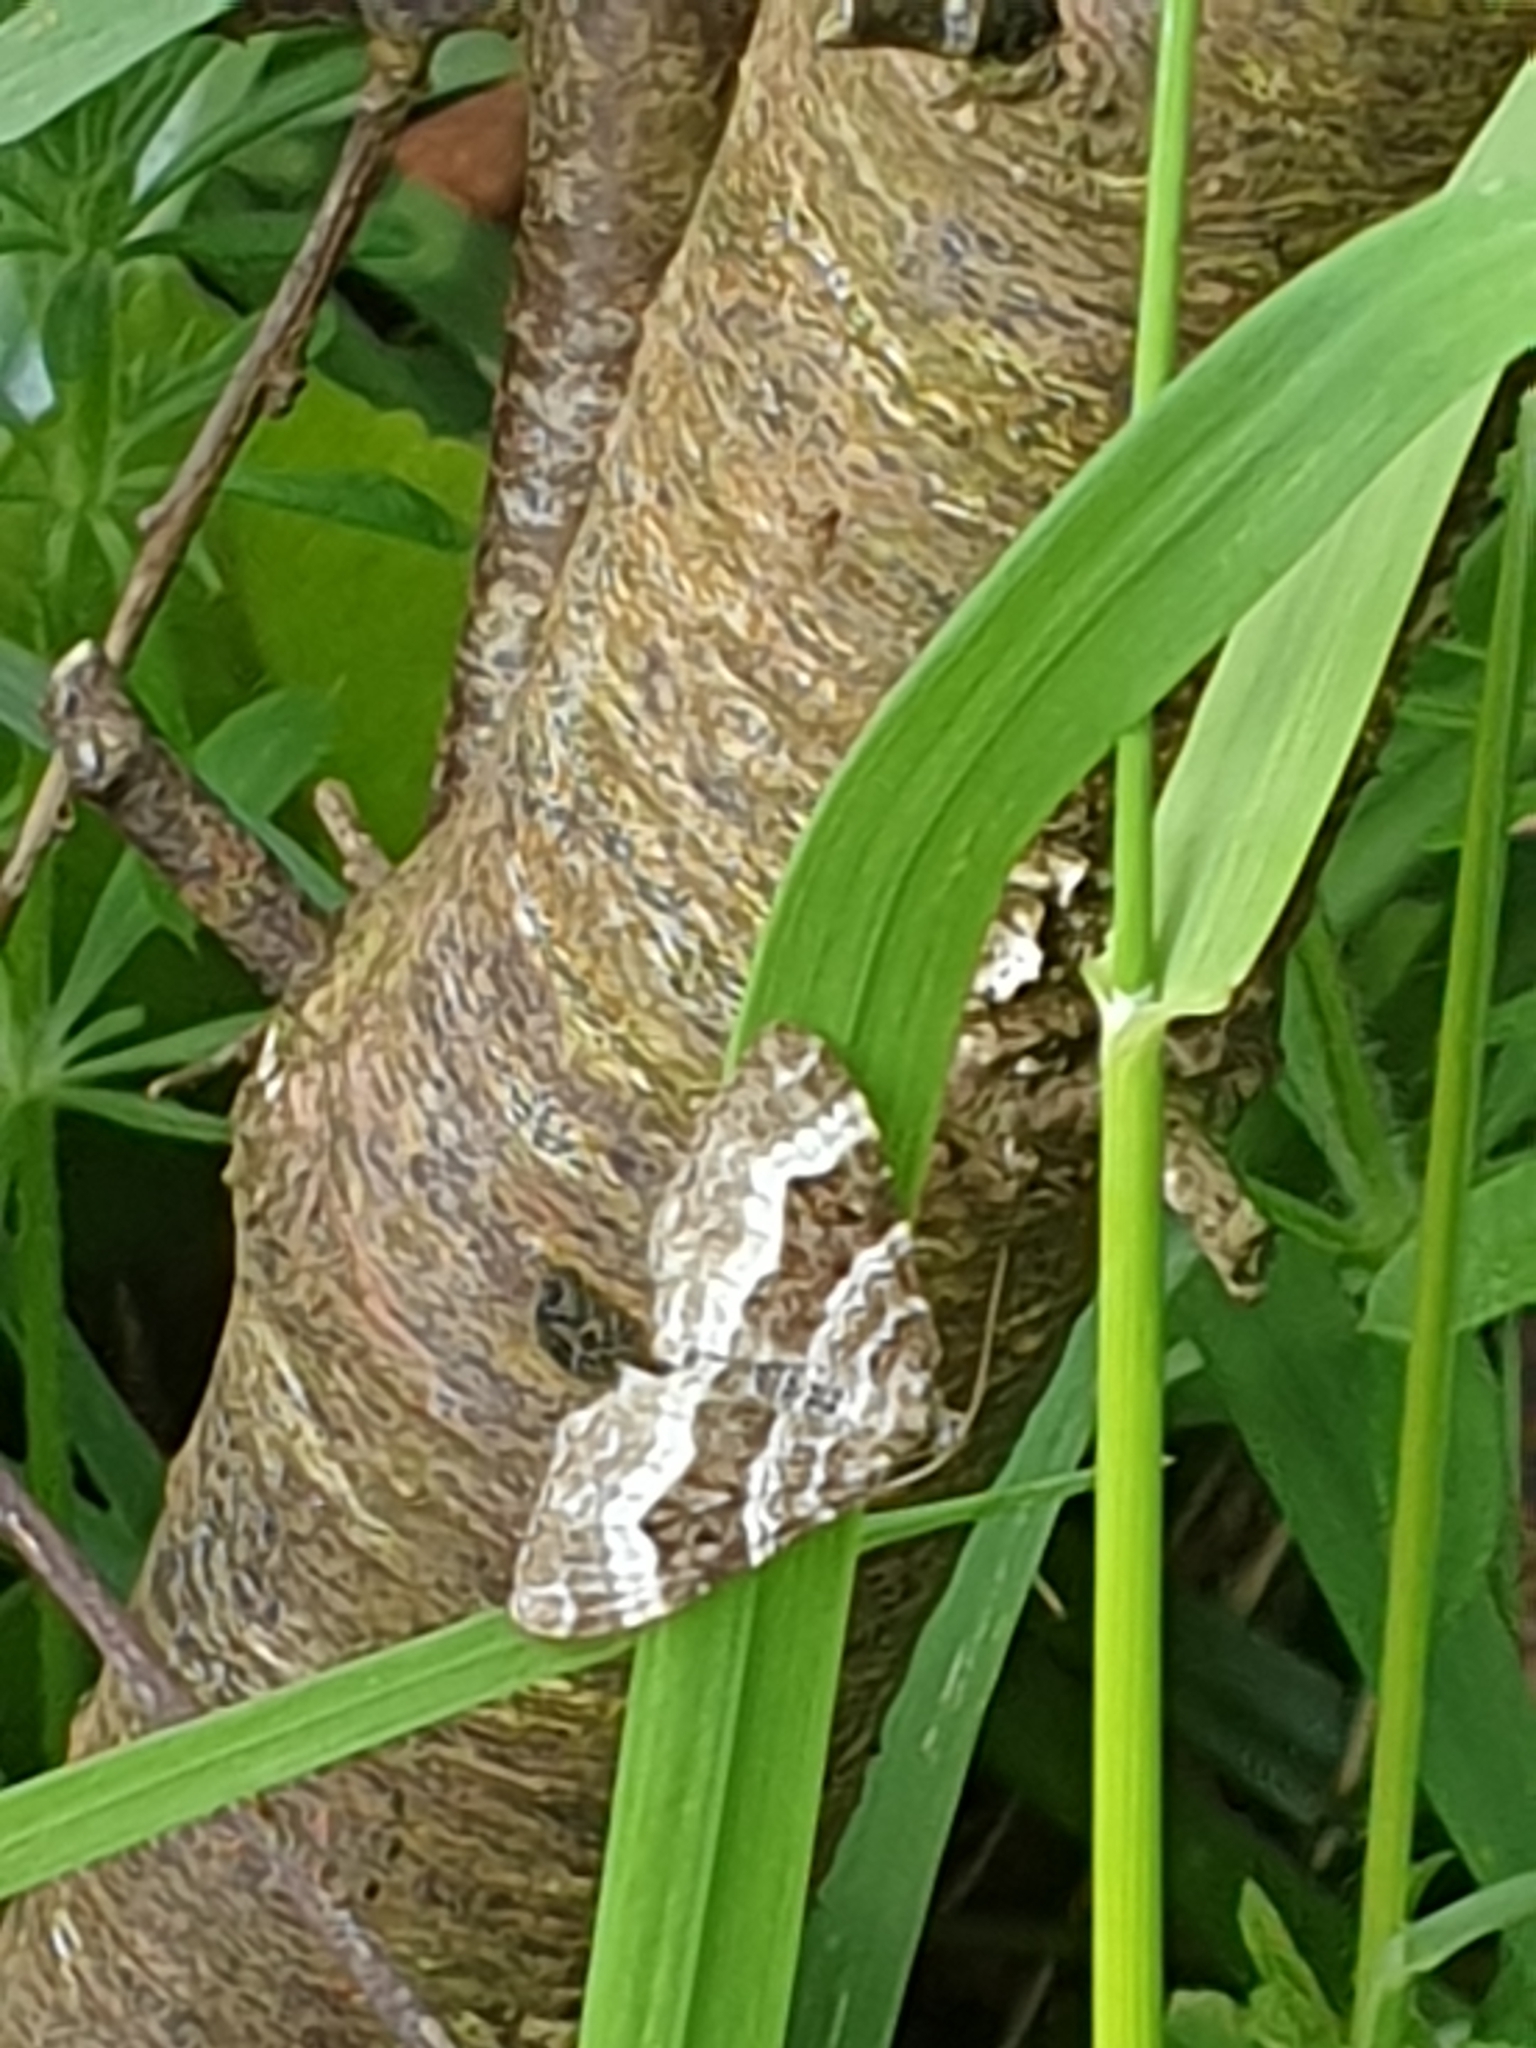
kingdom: Animalia
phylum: Arthropoda
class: Insecta
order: Lepidoptera
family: Geometridae
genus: Epirrhoe
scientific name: Epirrhoe alternata
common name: Common carpet
